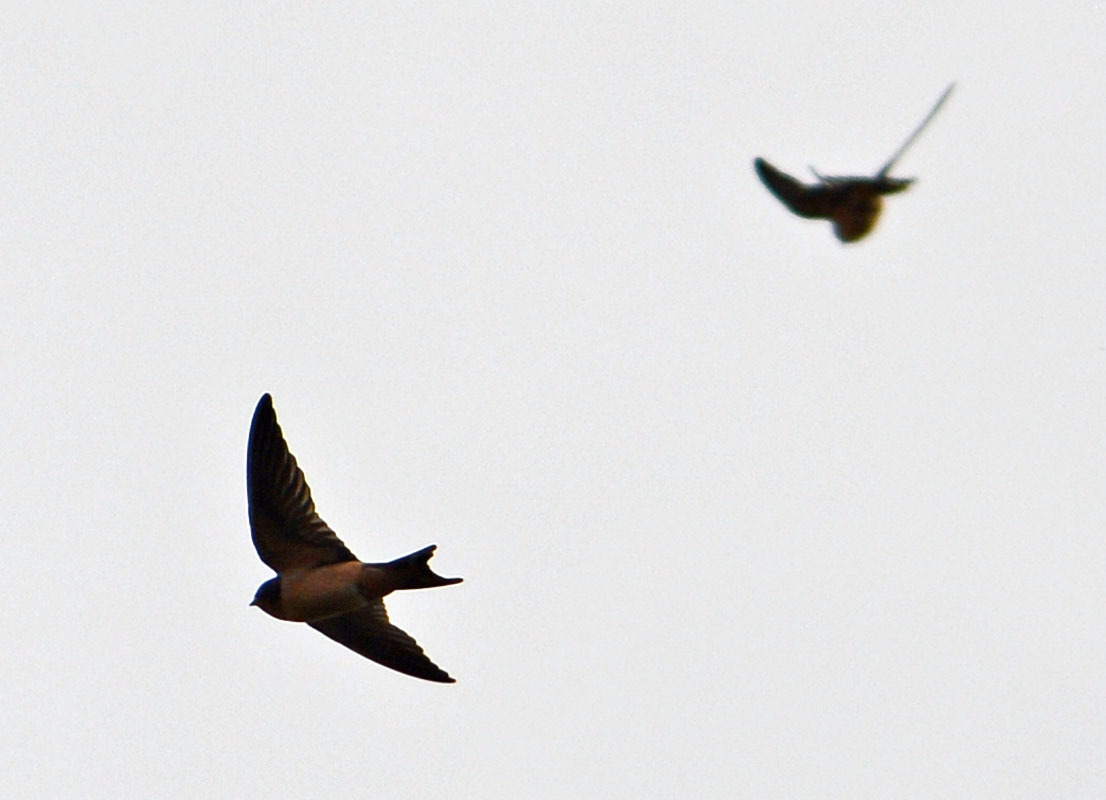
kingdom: Animalia
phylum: Chordata
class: Aves
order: Passeriformes
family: Hirundinidae
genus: Hirundo
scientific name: Hirundo rustica
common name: Barn swallow
